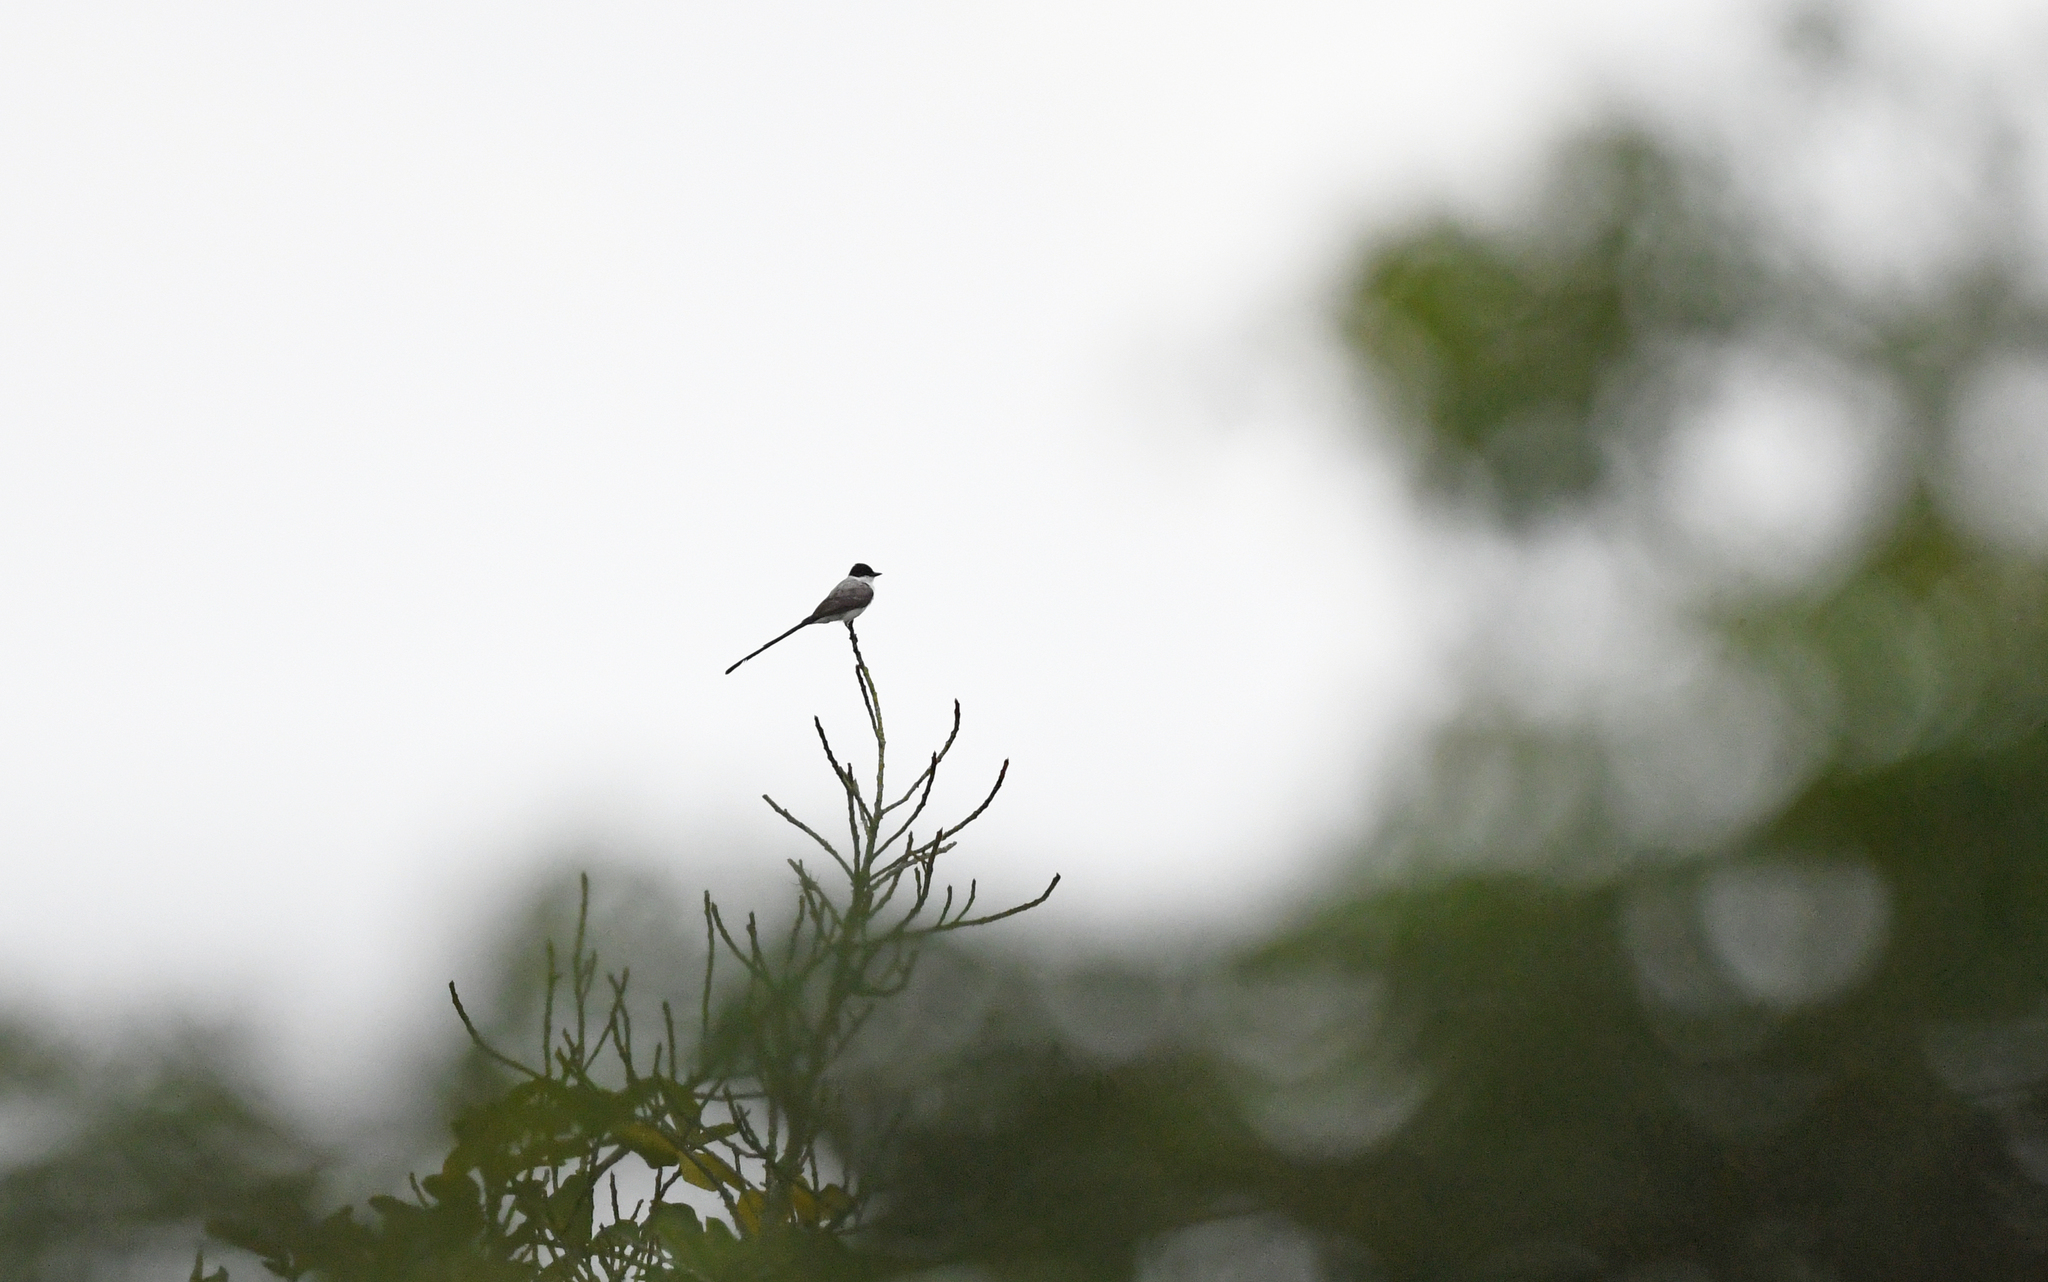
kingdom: Animalia
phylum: Chordata
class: Aves
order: Passeriformes
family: Tyrannidae
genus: Tyrannus
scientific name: Tyrannus savana
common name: Fork-tailed flycatcher
